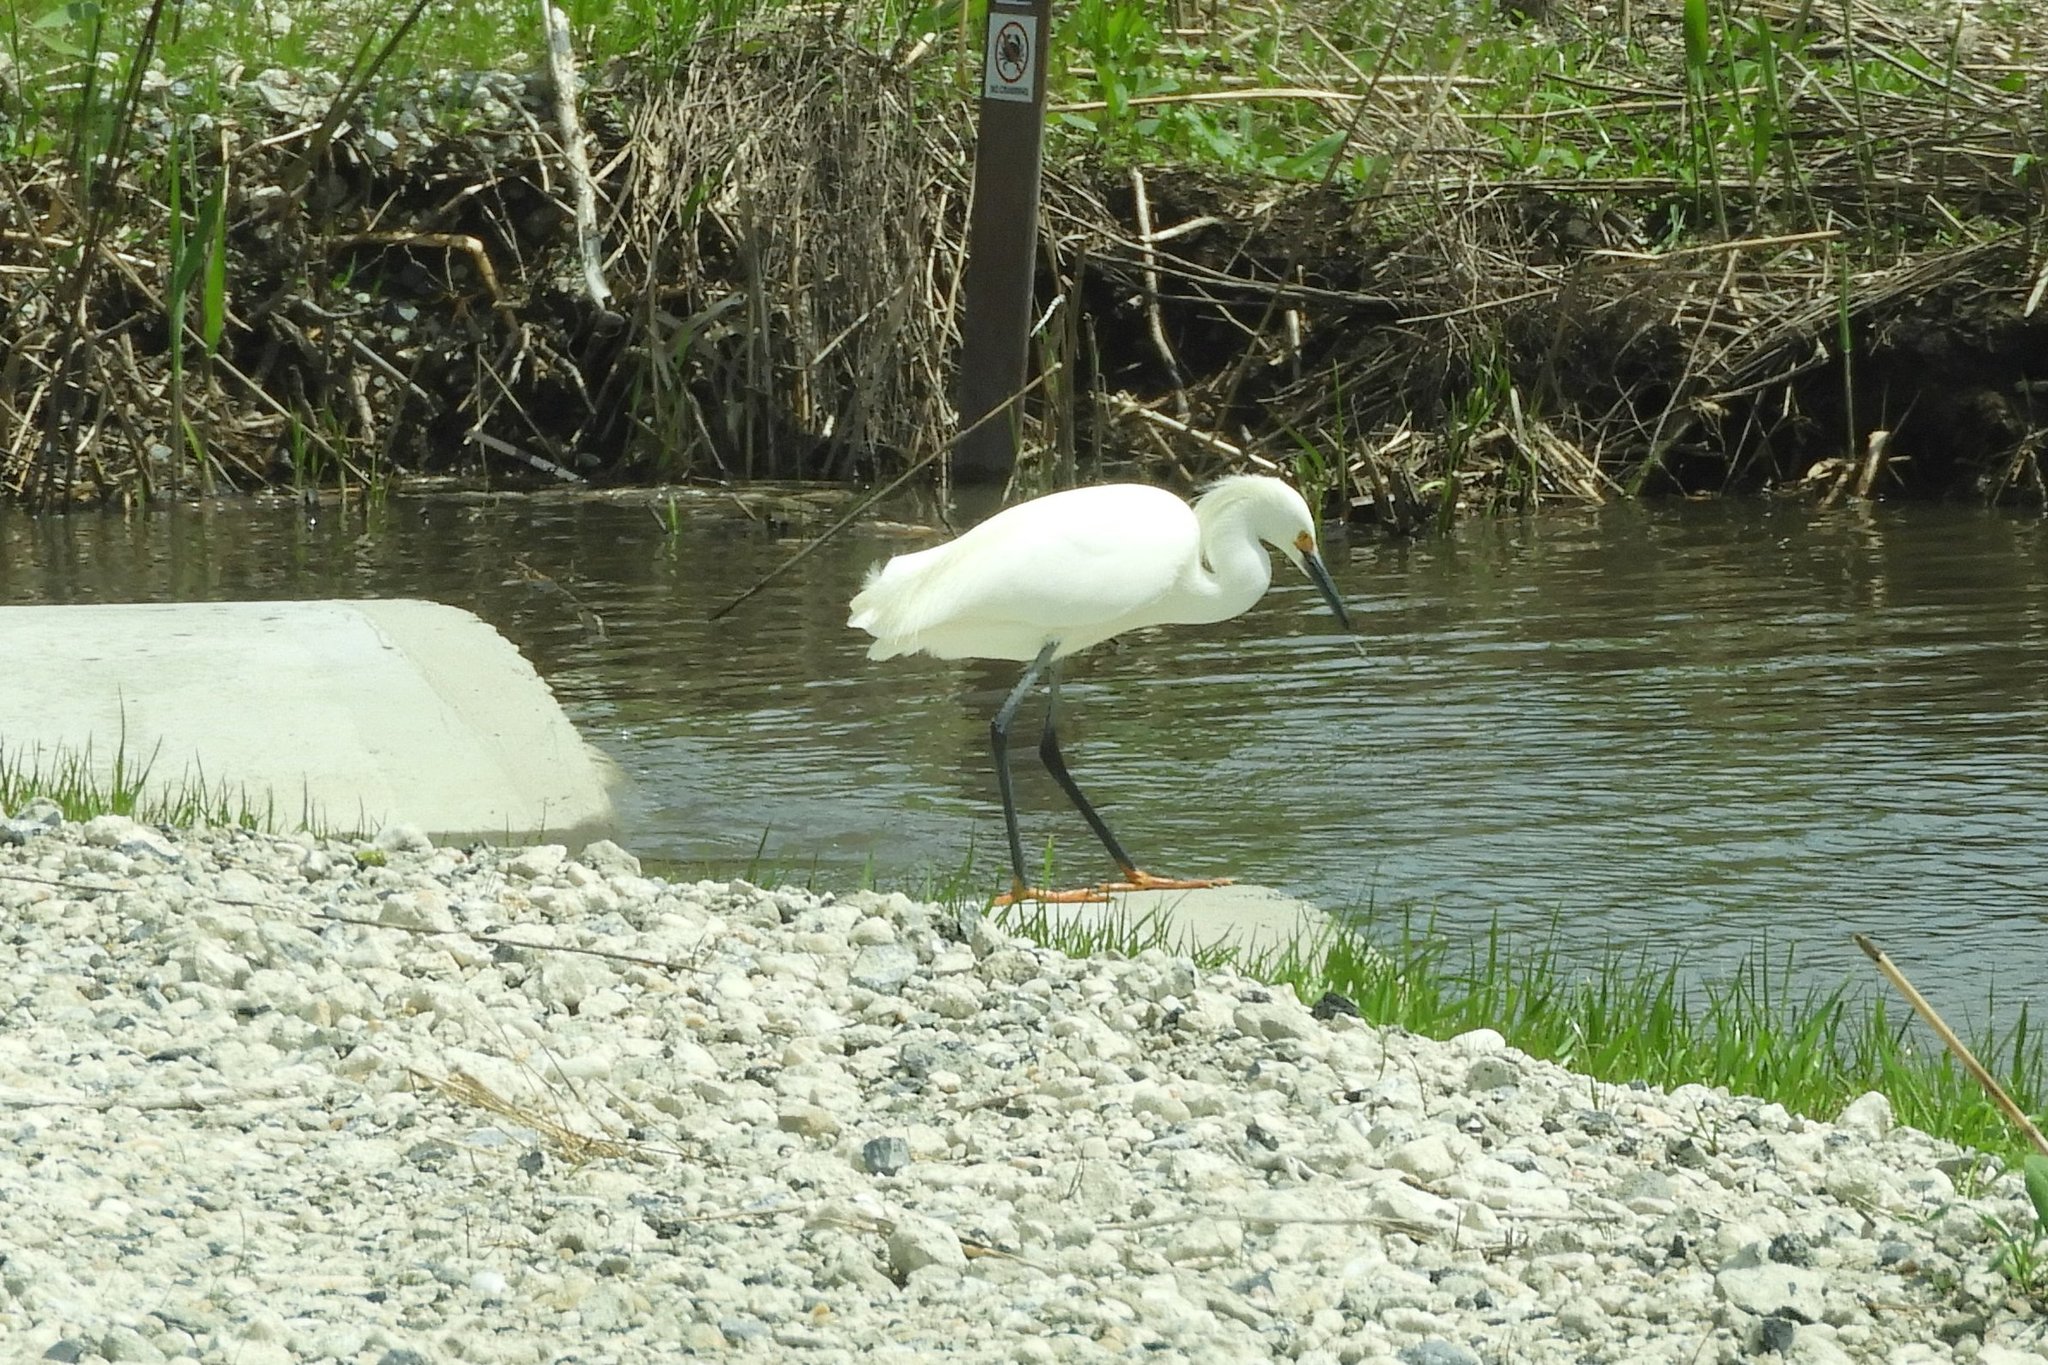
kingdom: Animalia
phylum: Chordata
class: Aves
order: Pelecaniformes
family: Ardeidae
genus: Egretta
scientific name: Egretta thula
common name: Snowy egret
